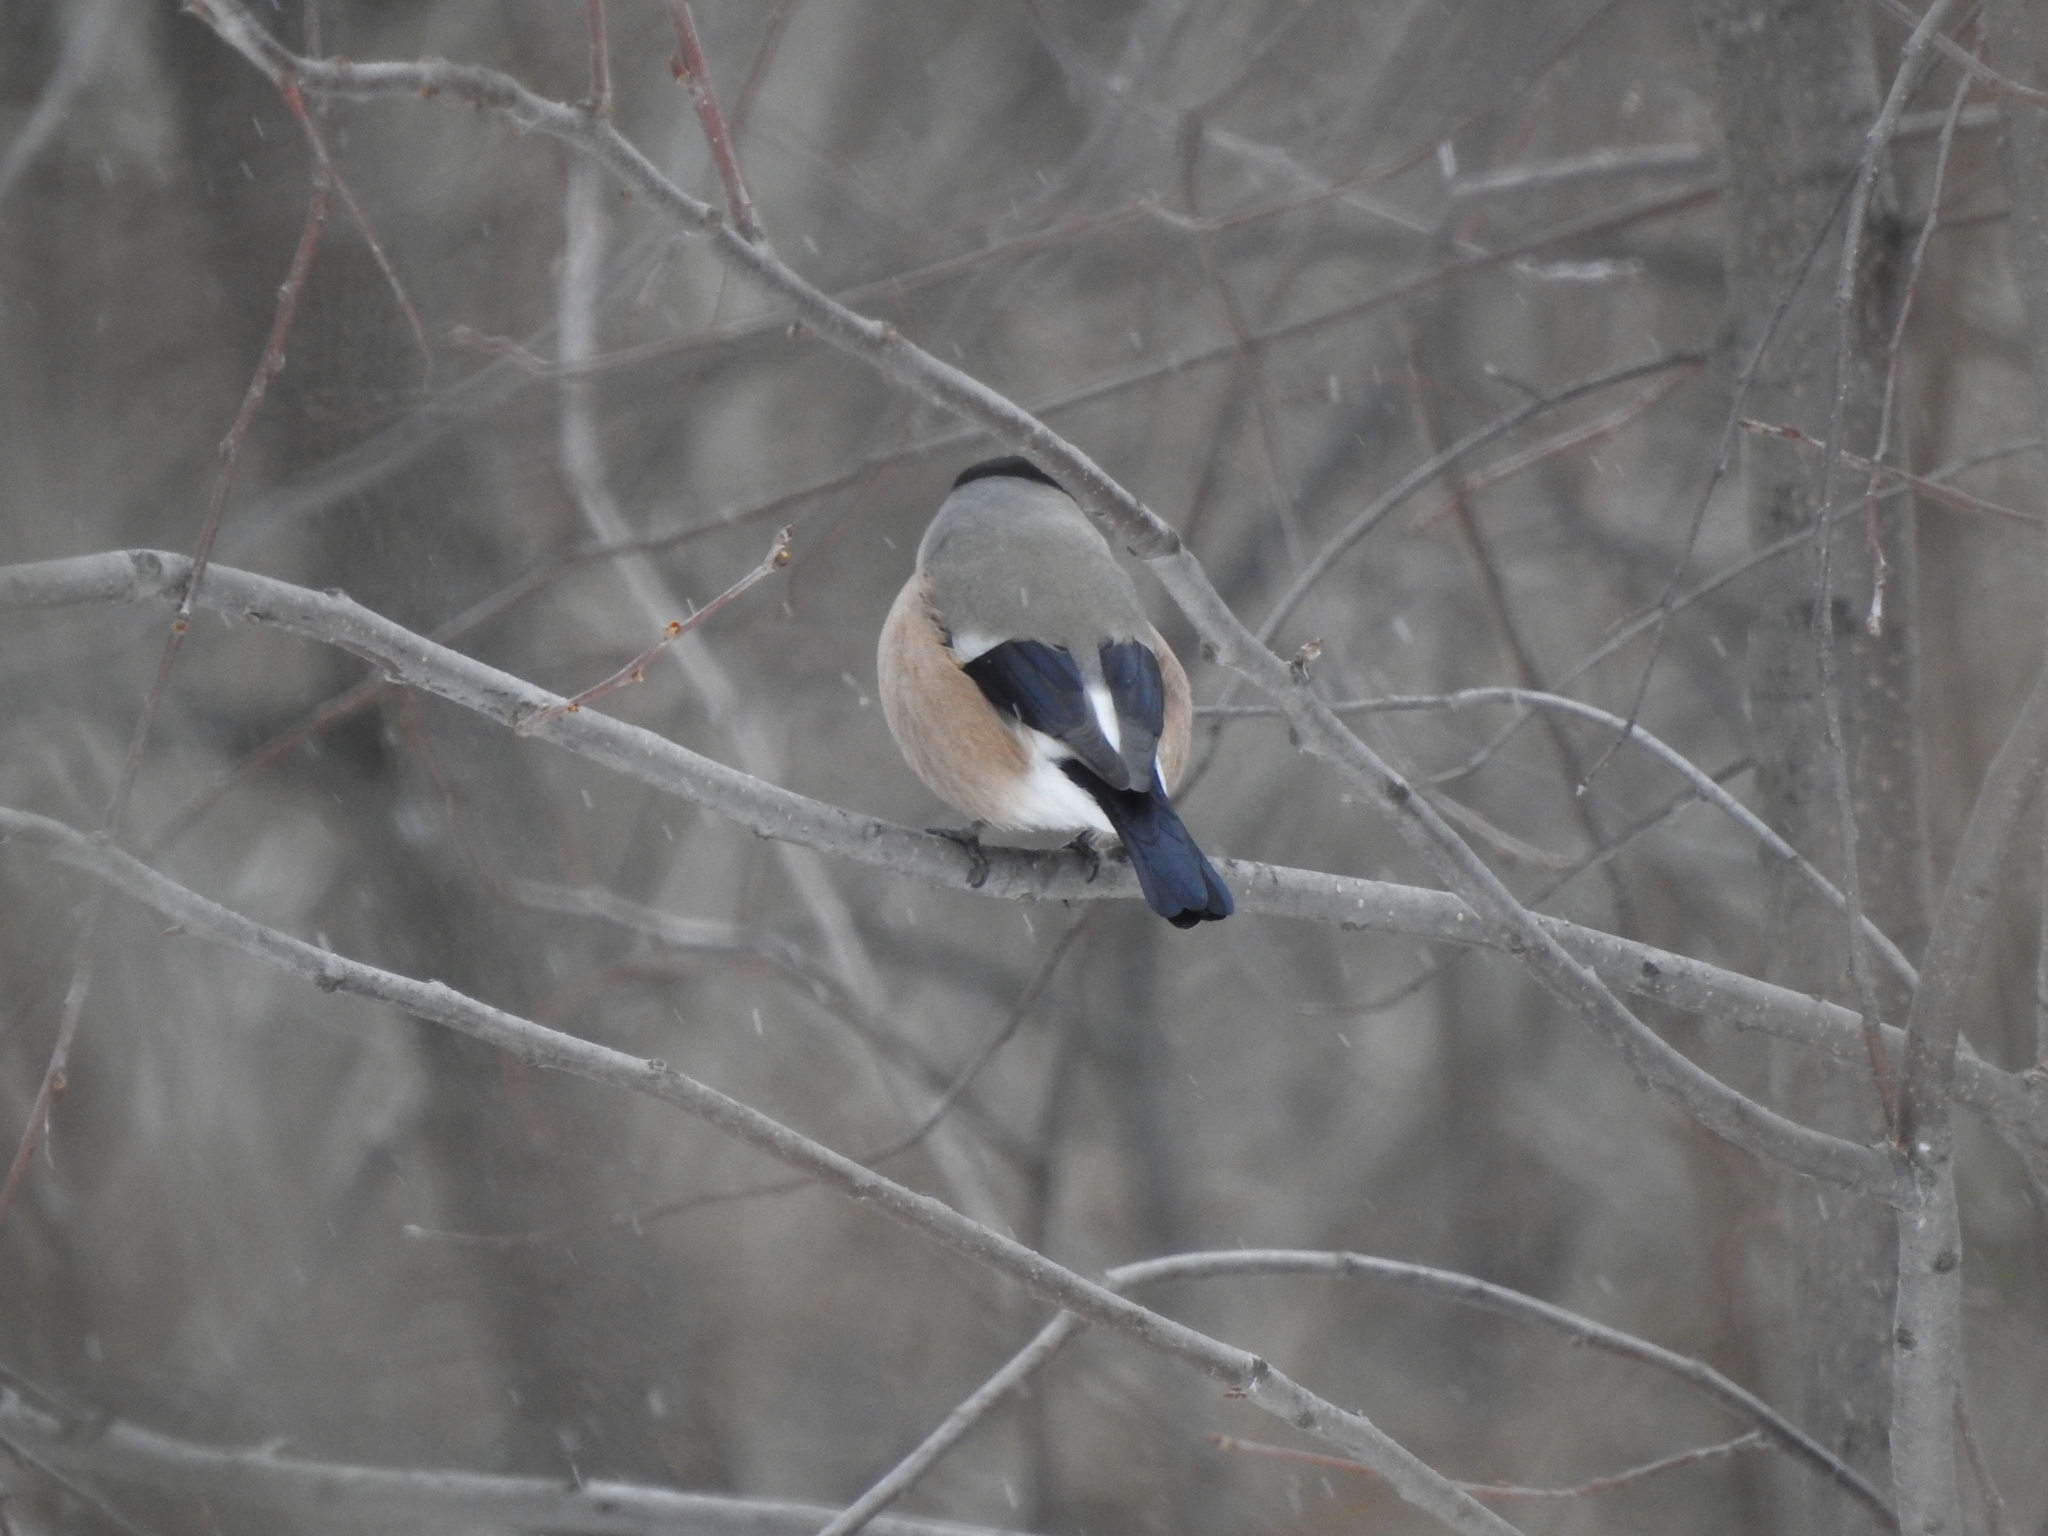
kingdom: Animalia
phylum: Chordata
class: Aves
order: Passeriformes
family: Fringillidae
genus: Pyrrhula
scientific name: Pyrrhula pyrrhula
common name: Eurasian bullfinch
